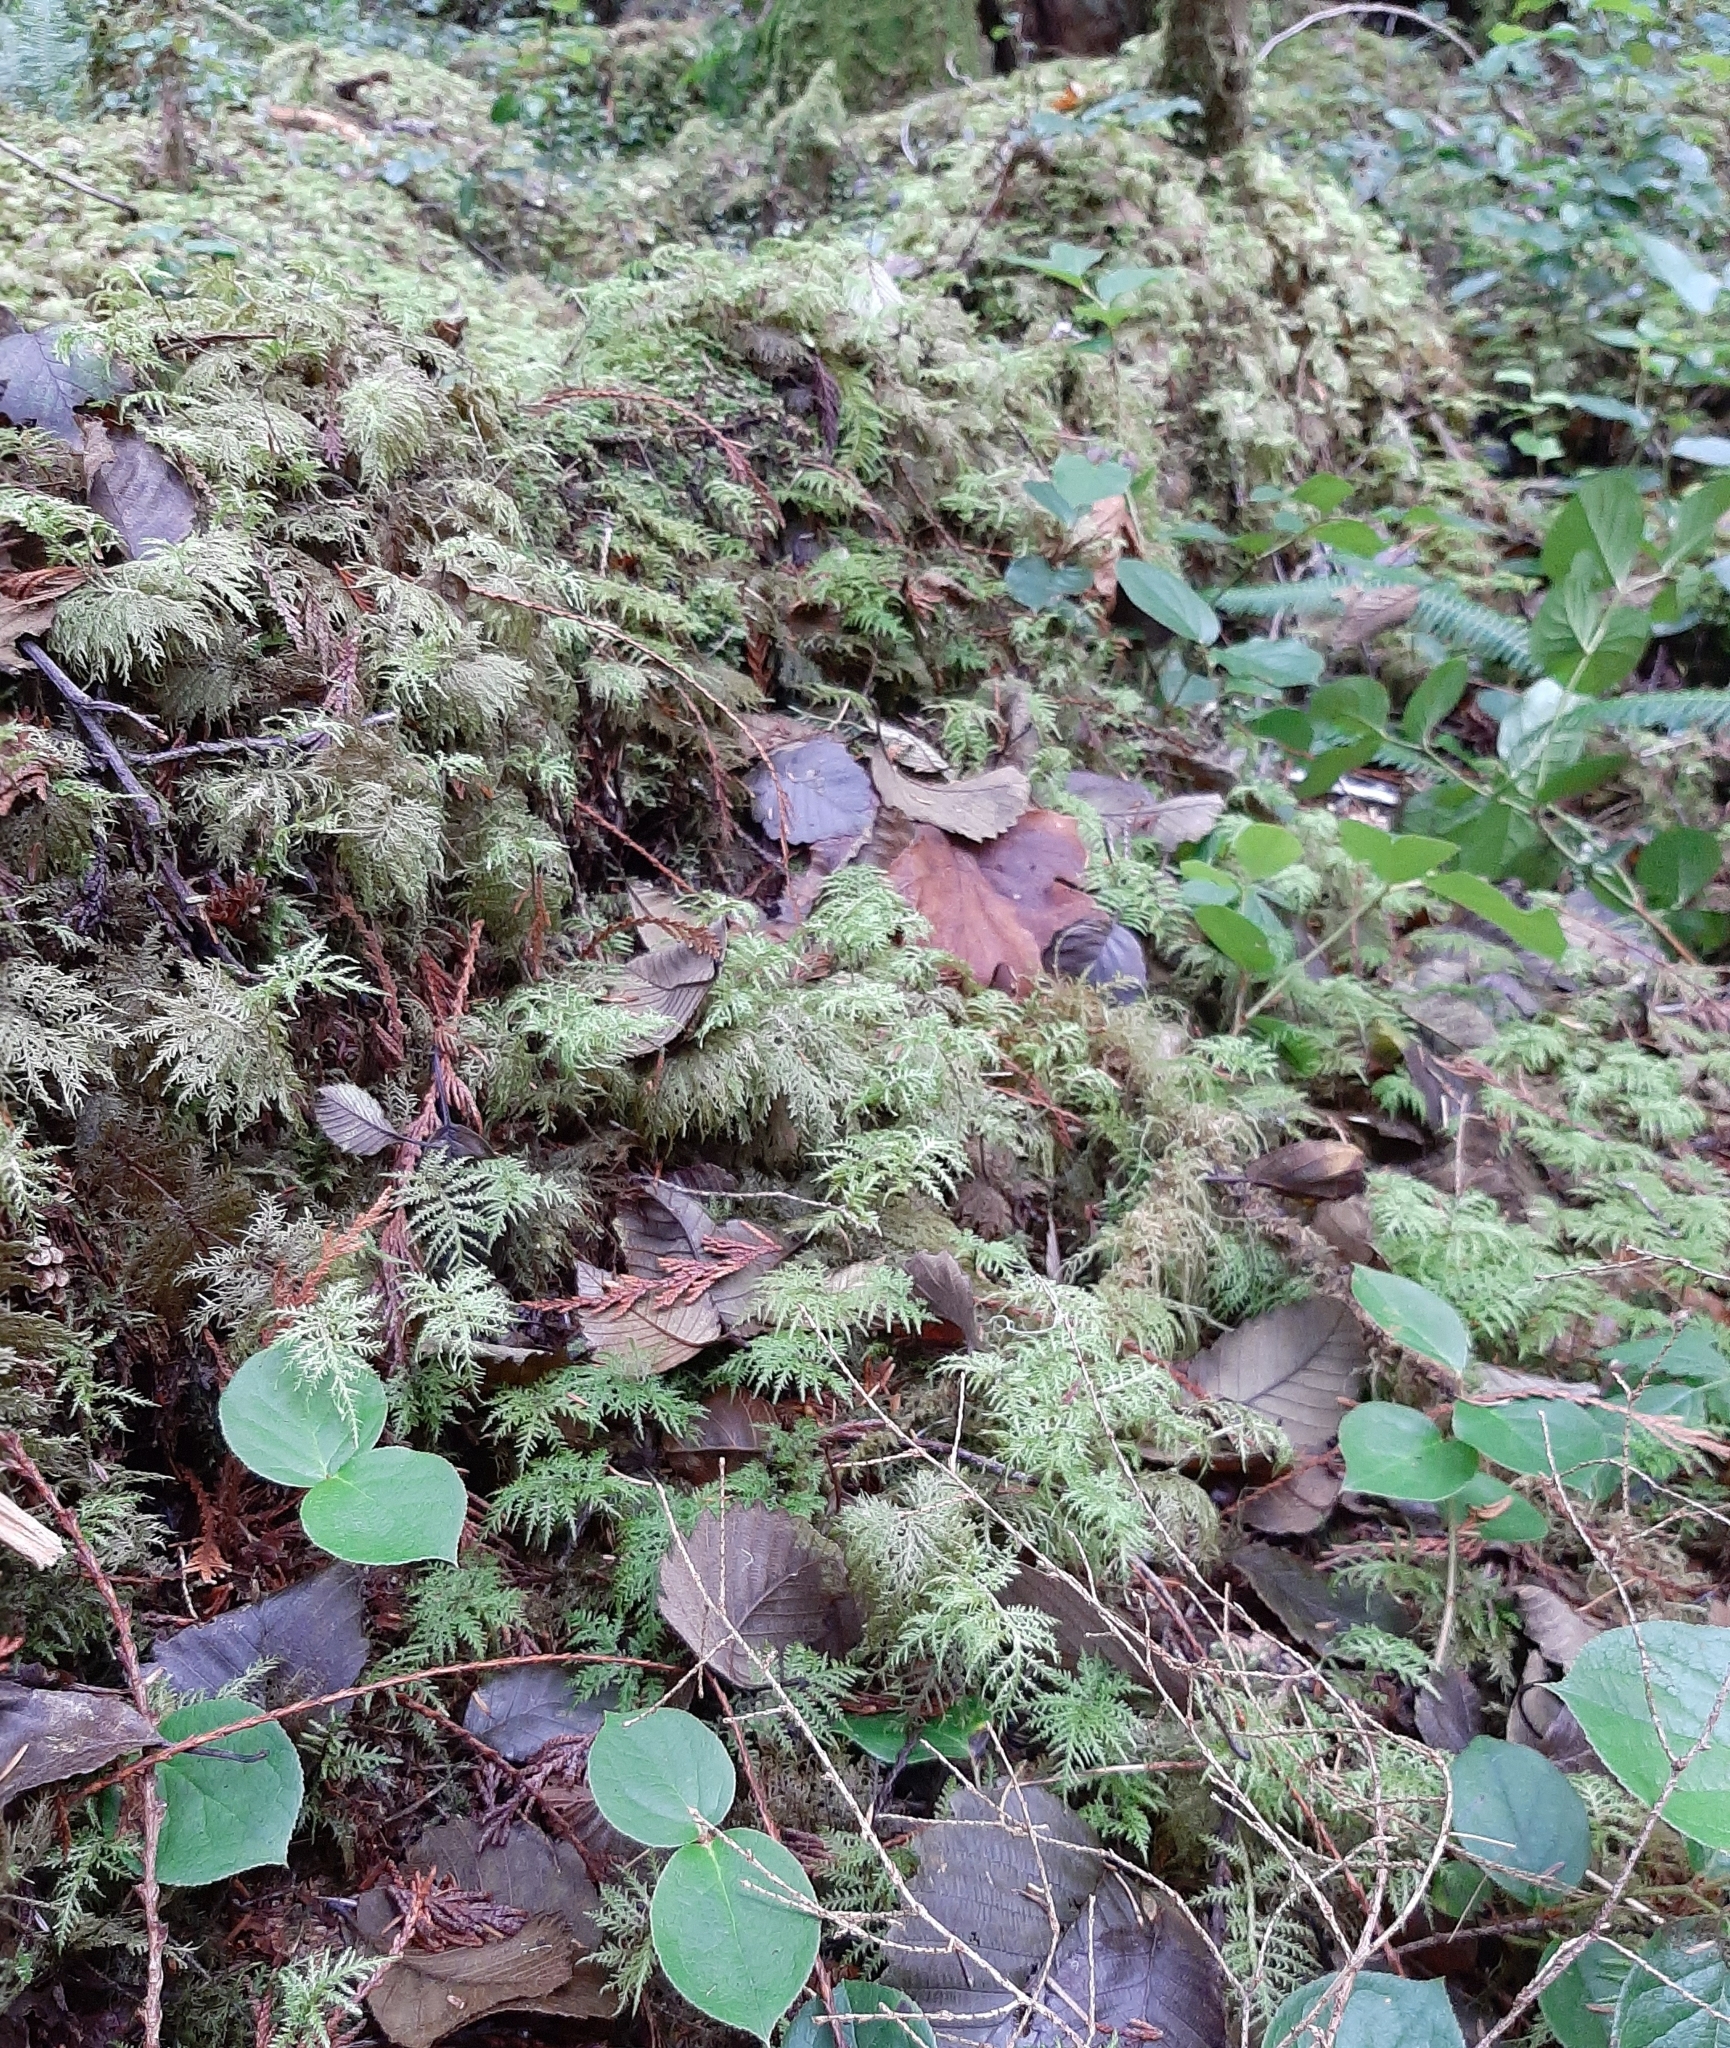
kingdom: Plantae
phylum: Bryophyta
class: Bryopsida
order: Hypnales
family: Hylocomiaceae
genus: Hylocomium
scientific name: Hylocomium splendens
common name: Stairstep moss
